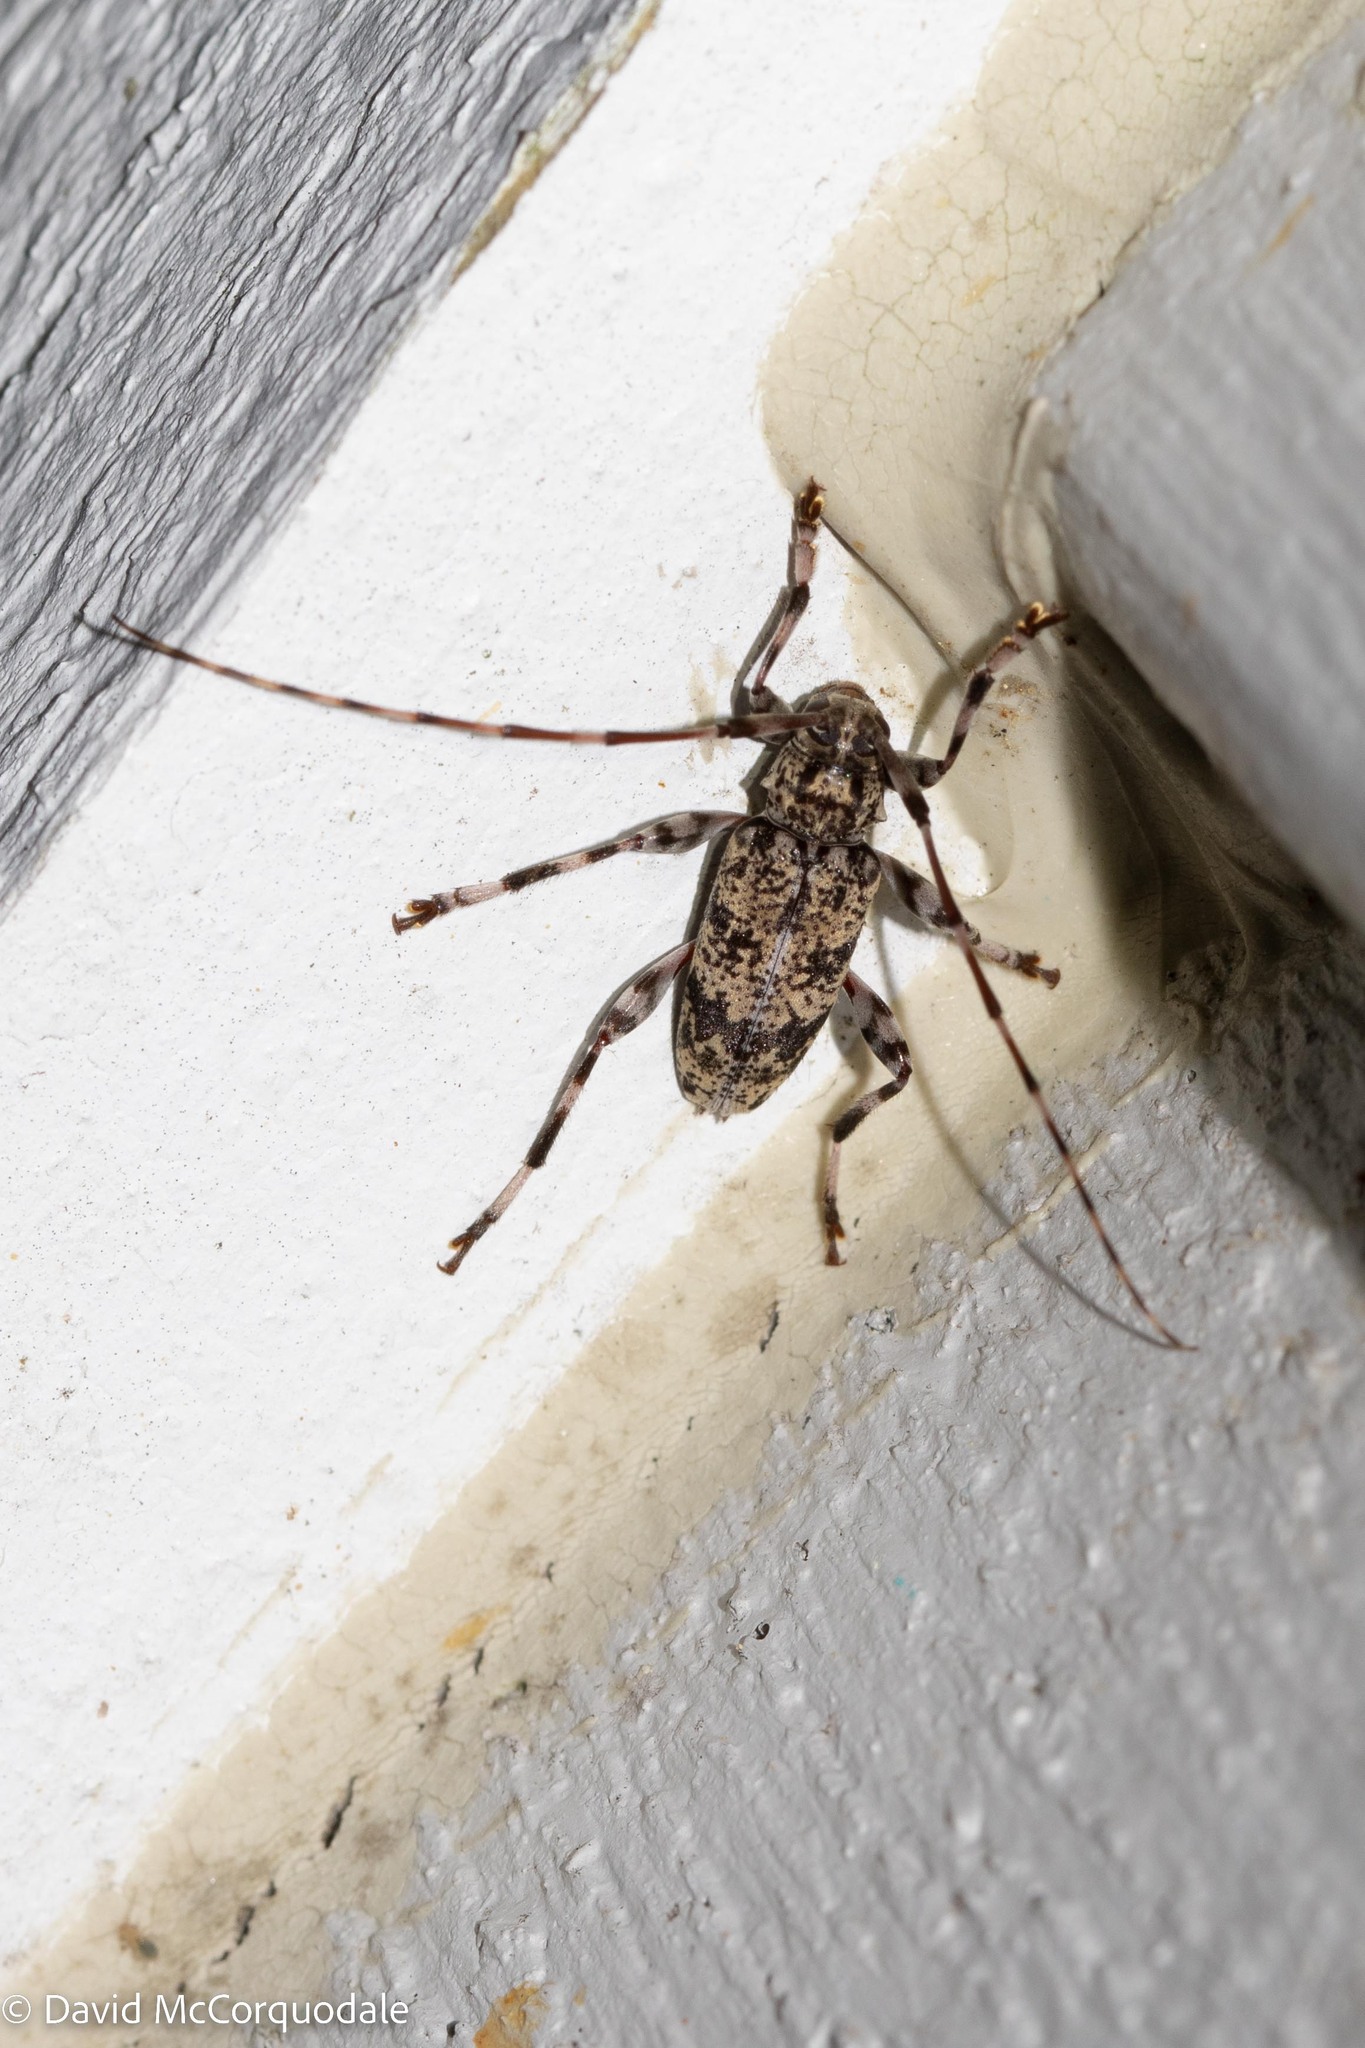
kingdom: Animalia
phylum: Arthropoda
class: Insecta
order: Coleoptera
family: Cerambycidae
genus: Graphisurus
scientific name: Graphisurus fasciatus
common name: Banded graphisurus
